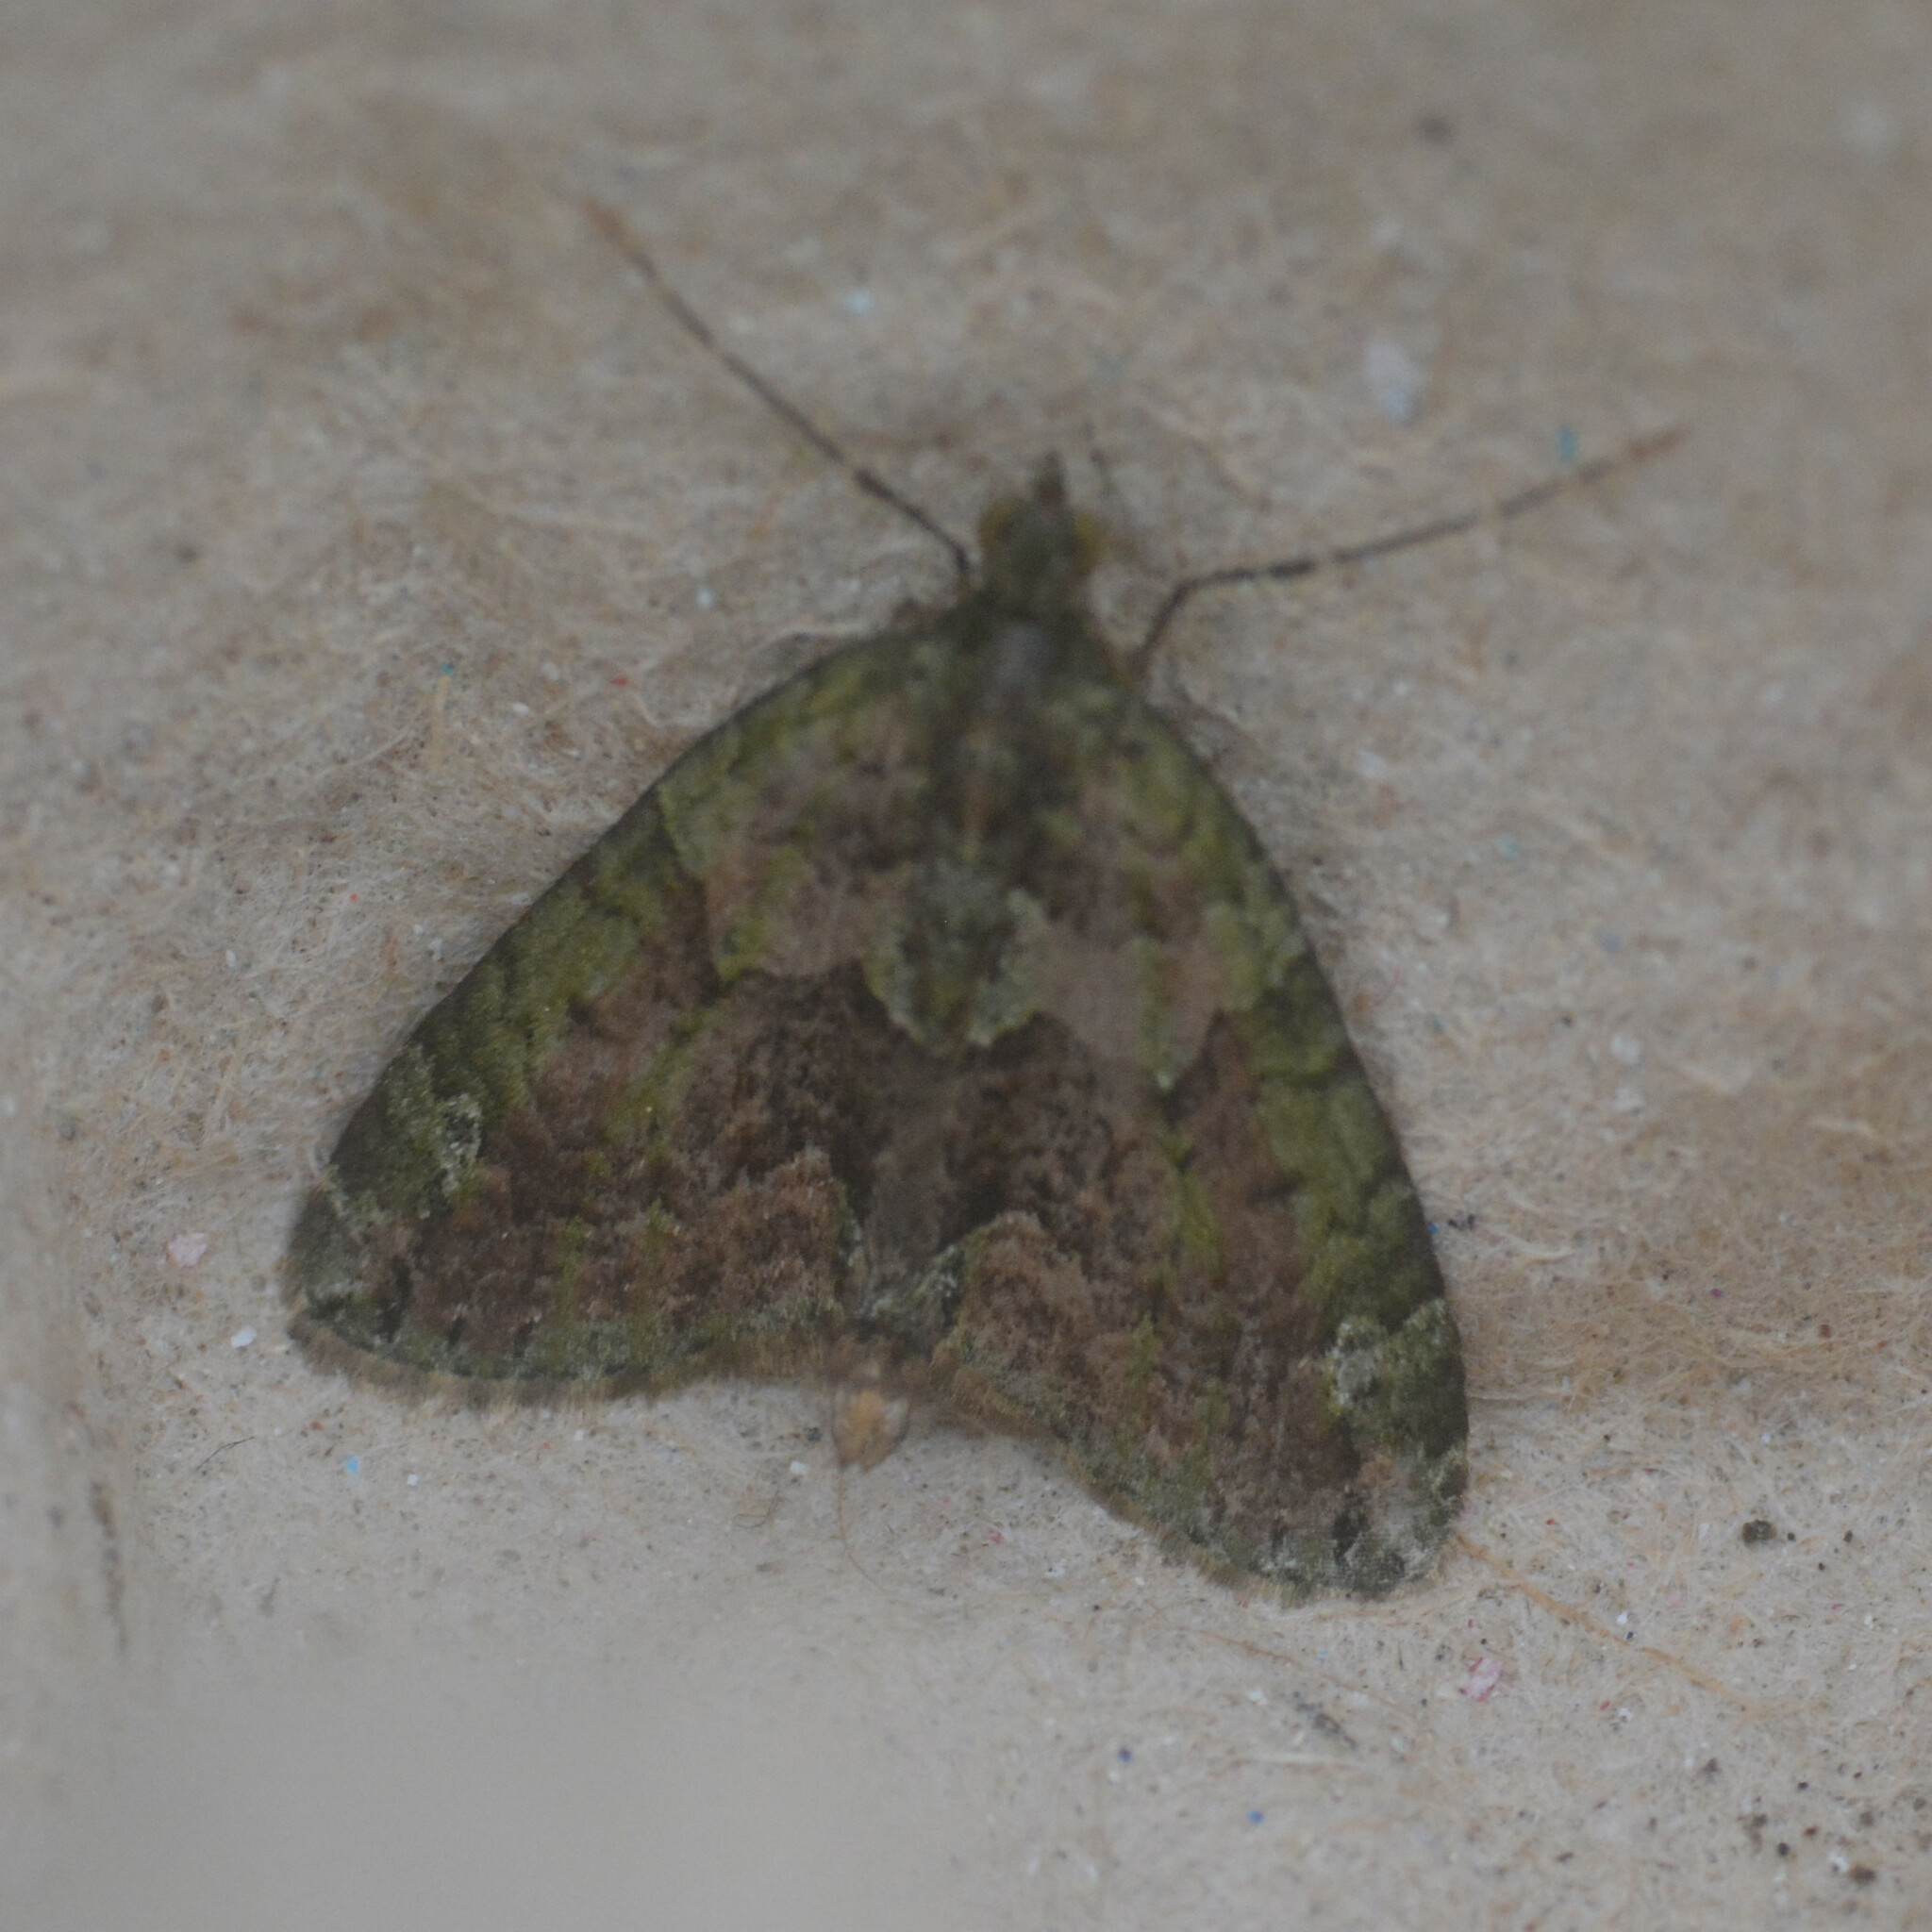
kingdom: Animalia
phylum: Arthropoda
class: Insecta
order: Lepidoptera
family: Geometridae
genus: Chloroclysta
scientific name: Chloroclysta siterata
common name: Red-green carpet
